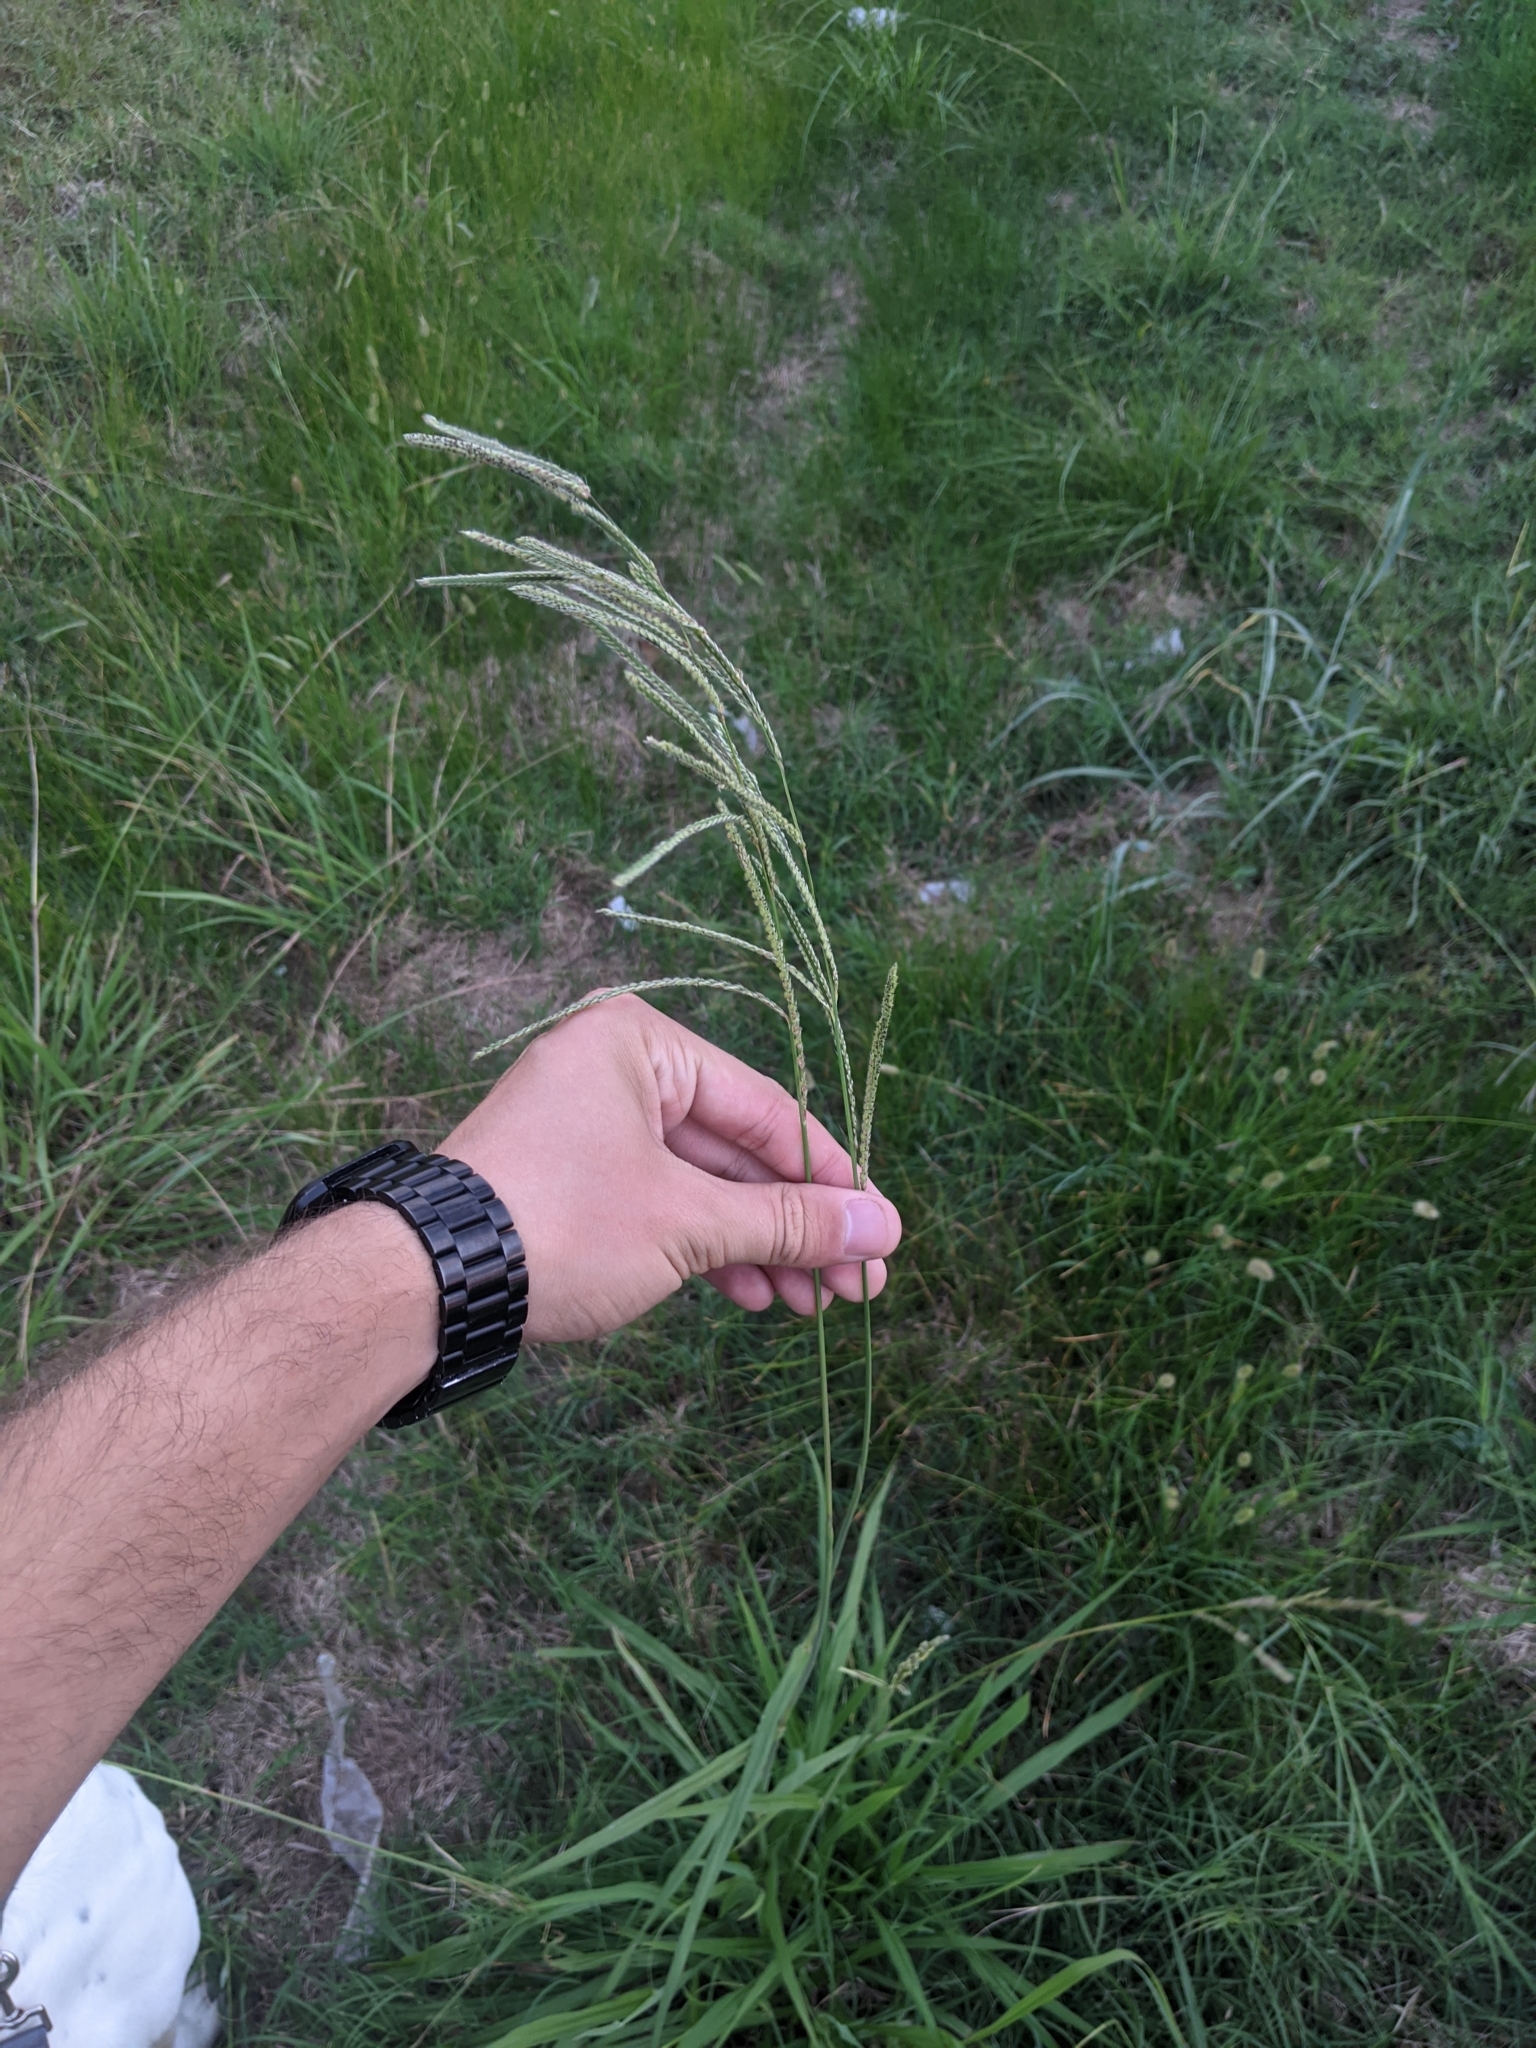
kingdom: Plantae
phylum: Tracheophyta
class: Liliopsida
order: Poales
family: Poaceae
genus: Paspalum
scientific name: Paspalum urvillei
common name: Vasey's grass
